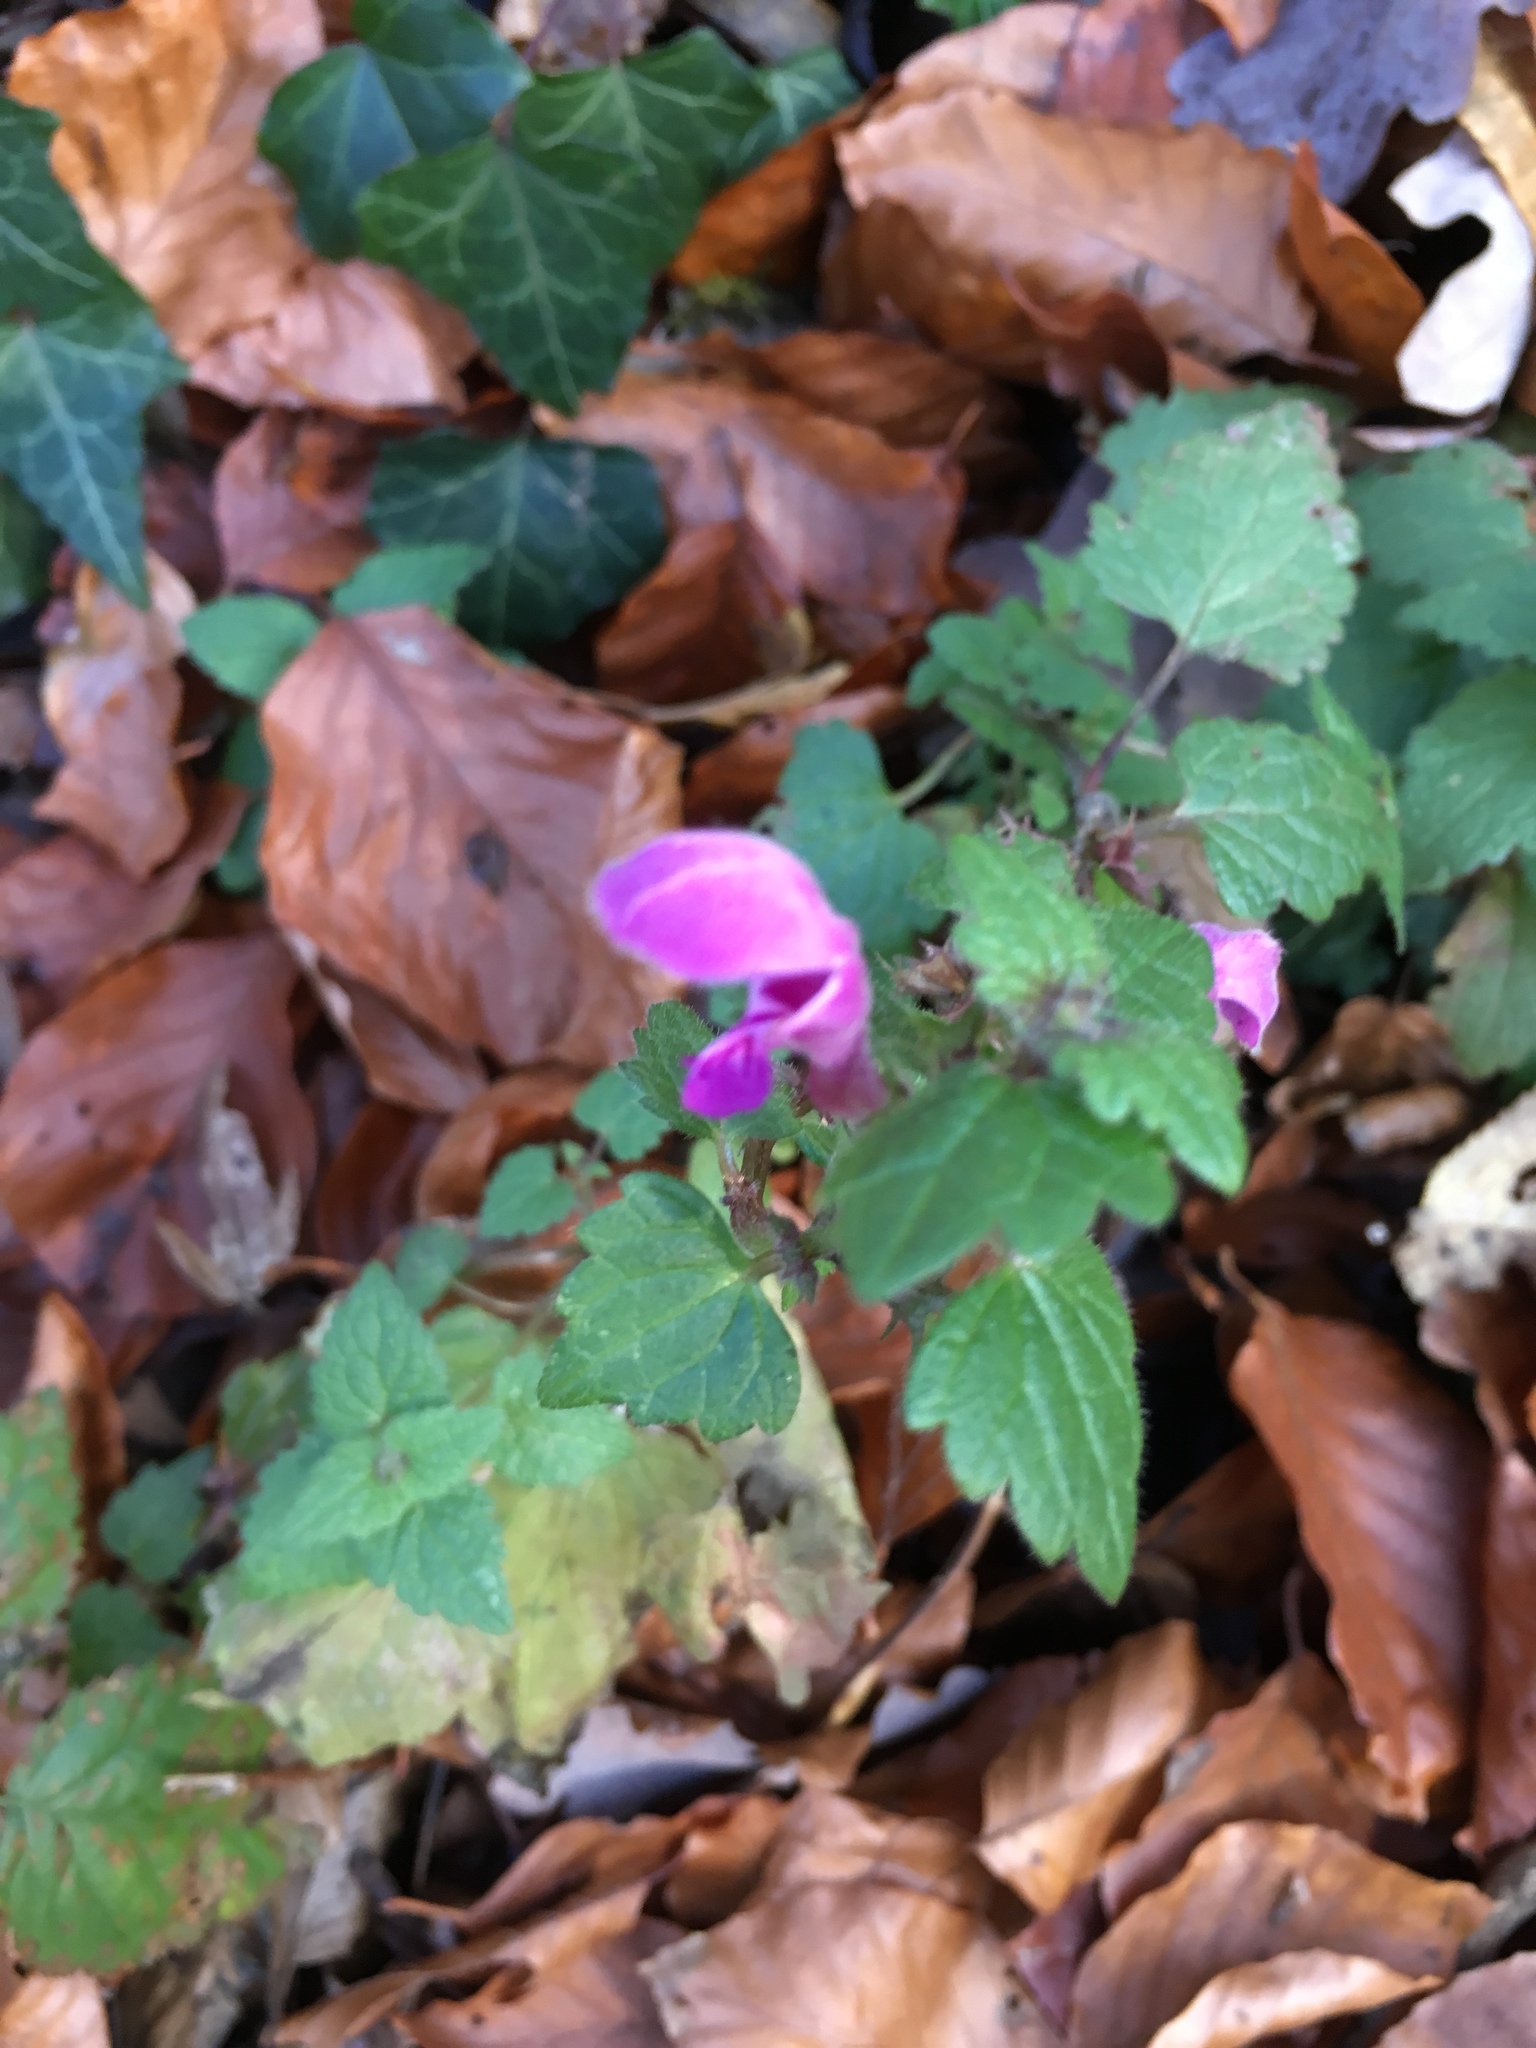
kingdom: Plantae
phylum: Tracheophyta
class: Magnoliopsida
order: Lamiales
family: Lamiaceae
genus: Lamium
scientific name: Lamium maculatum
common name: Spotted dead-nettle
